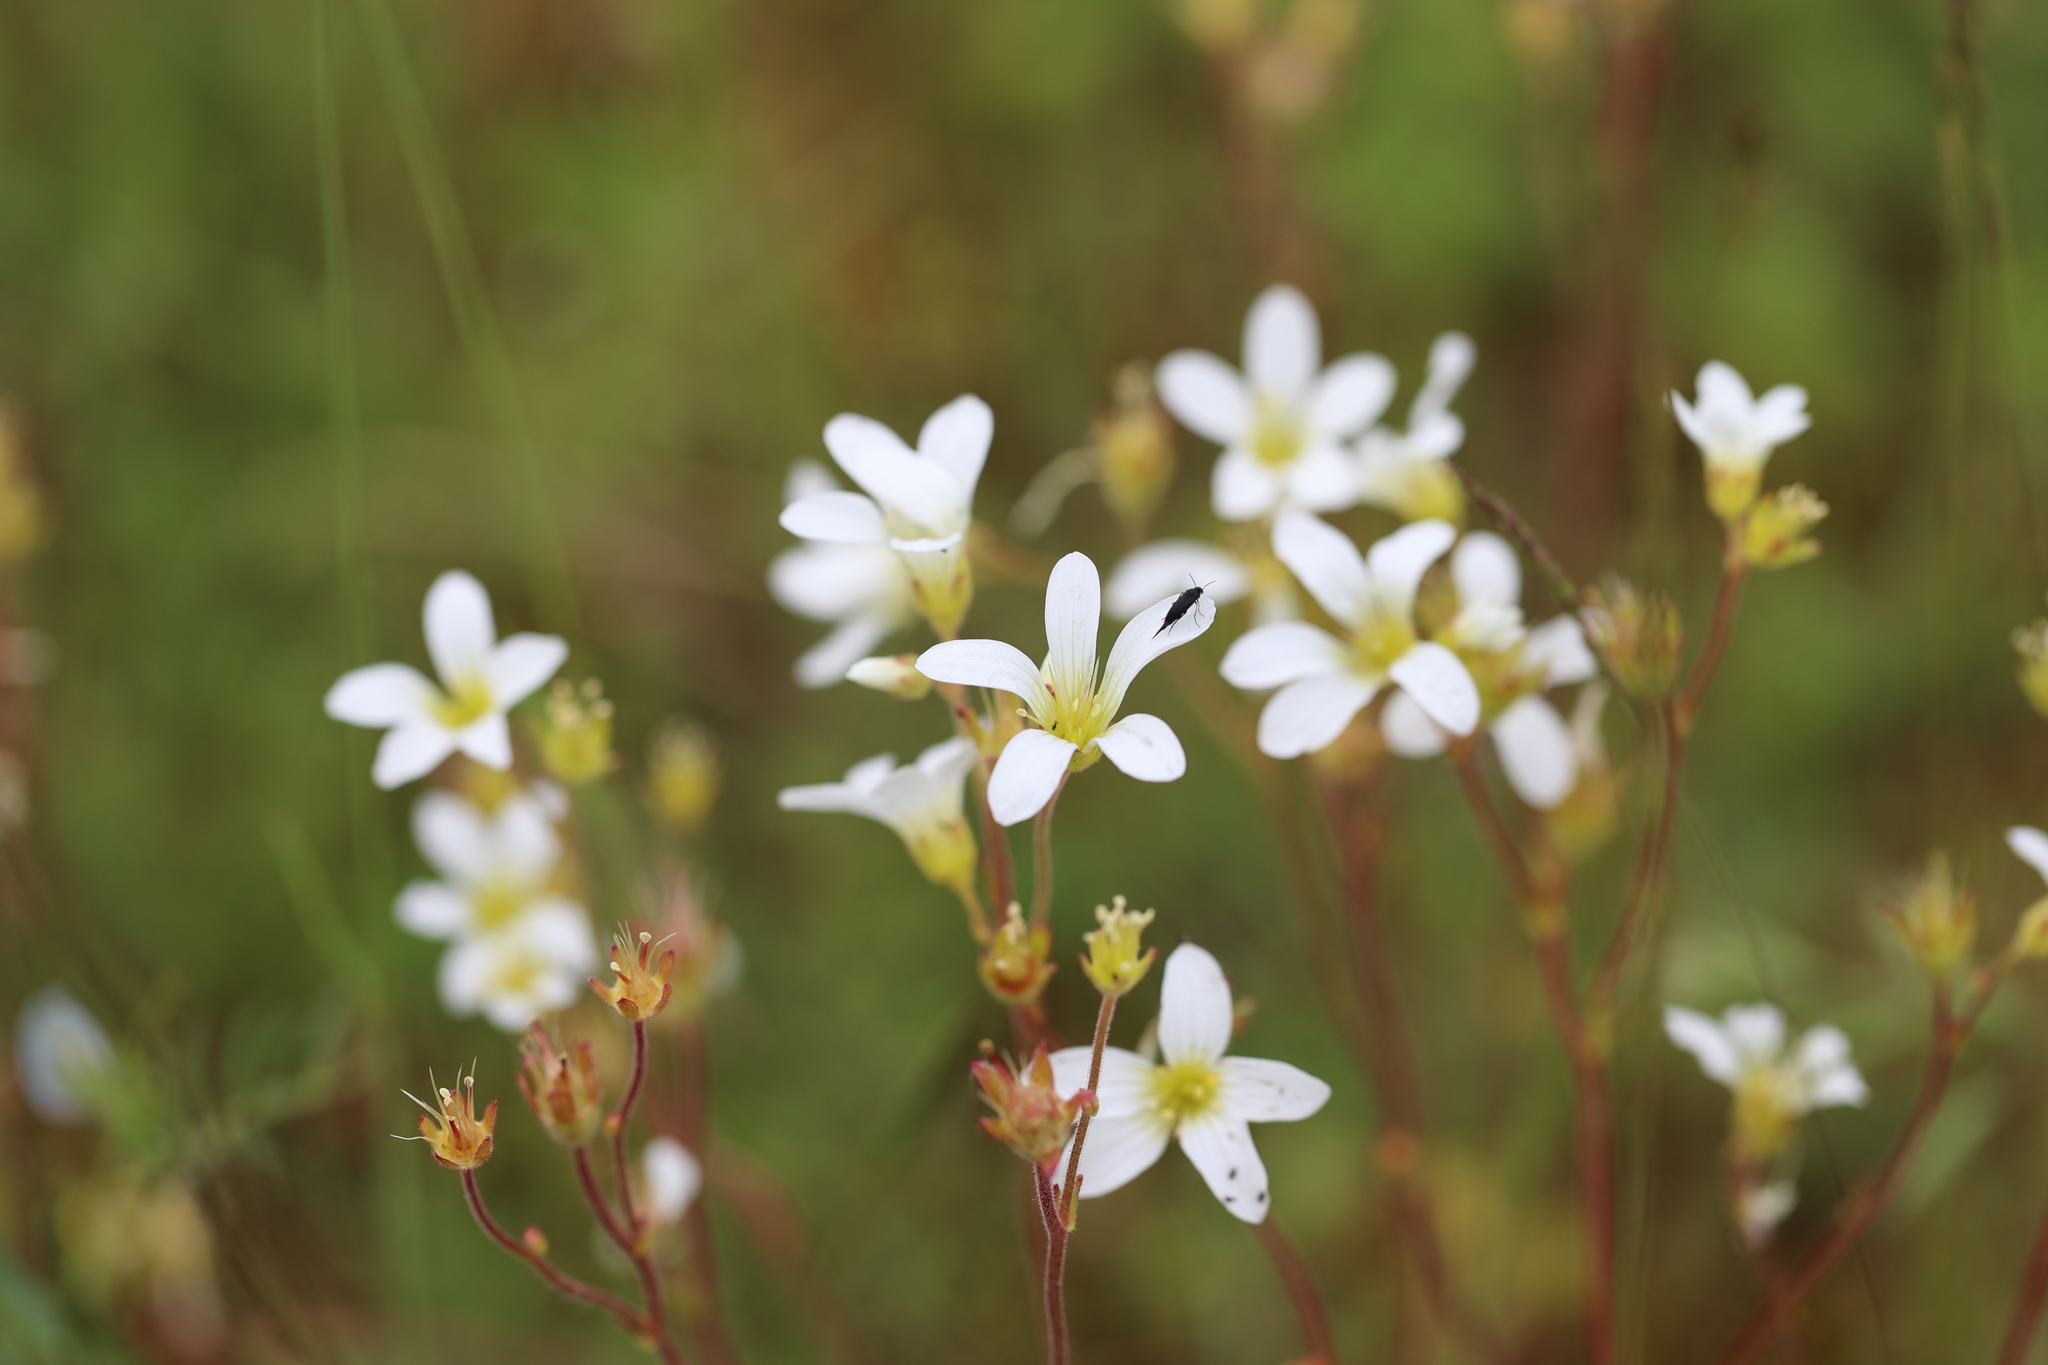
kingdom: Plantae
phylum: Tracheophyta
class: Magnoliopsida
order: Saxifragales
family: Saxifragaceae
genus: Saxifraga
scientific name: Saxifraga granulata
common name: Meadow saxifrage
